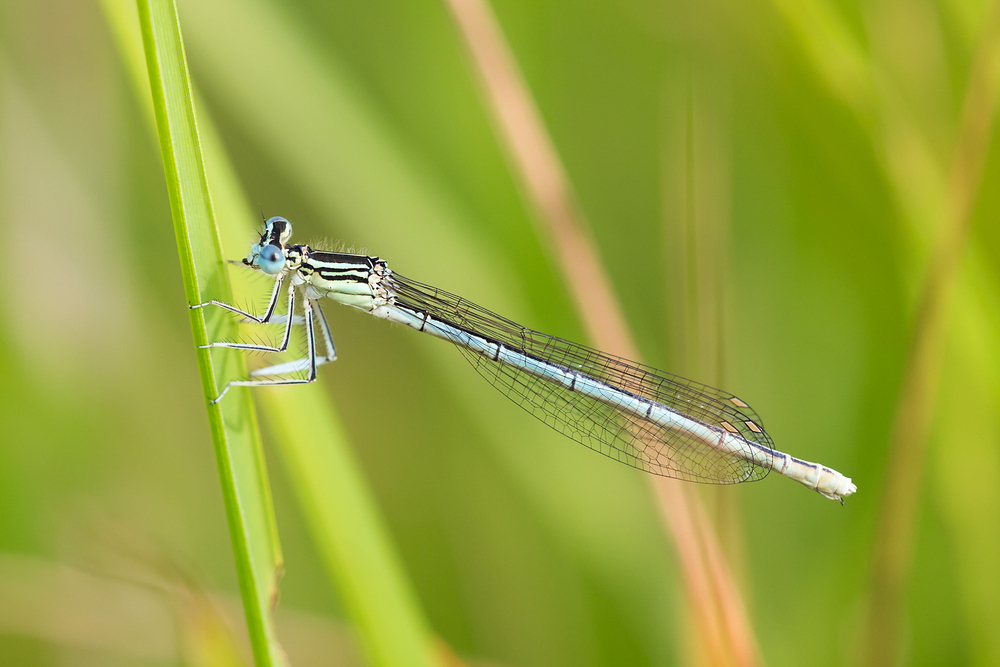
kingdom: Animalia
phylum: Arthropoda
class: Insecta
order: Odonata
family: Platycnemididae
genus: Platycnemis
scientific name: Platycnemis pennipes
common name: White-legged damselfly
